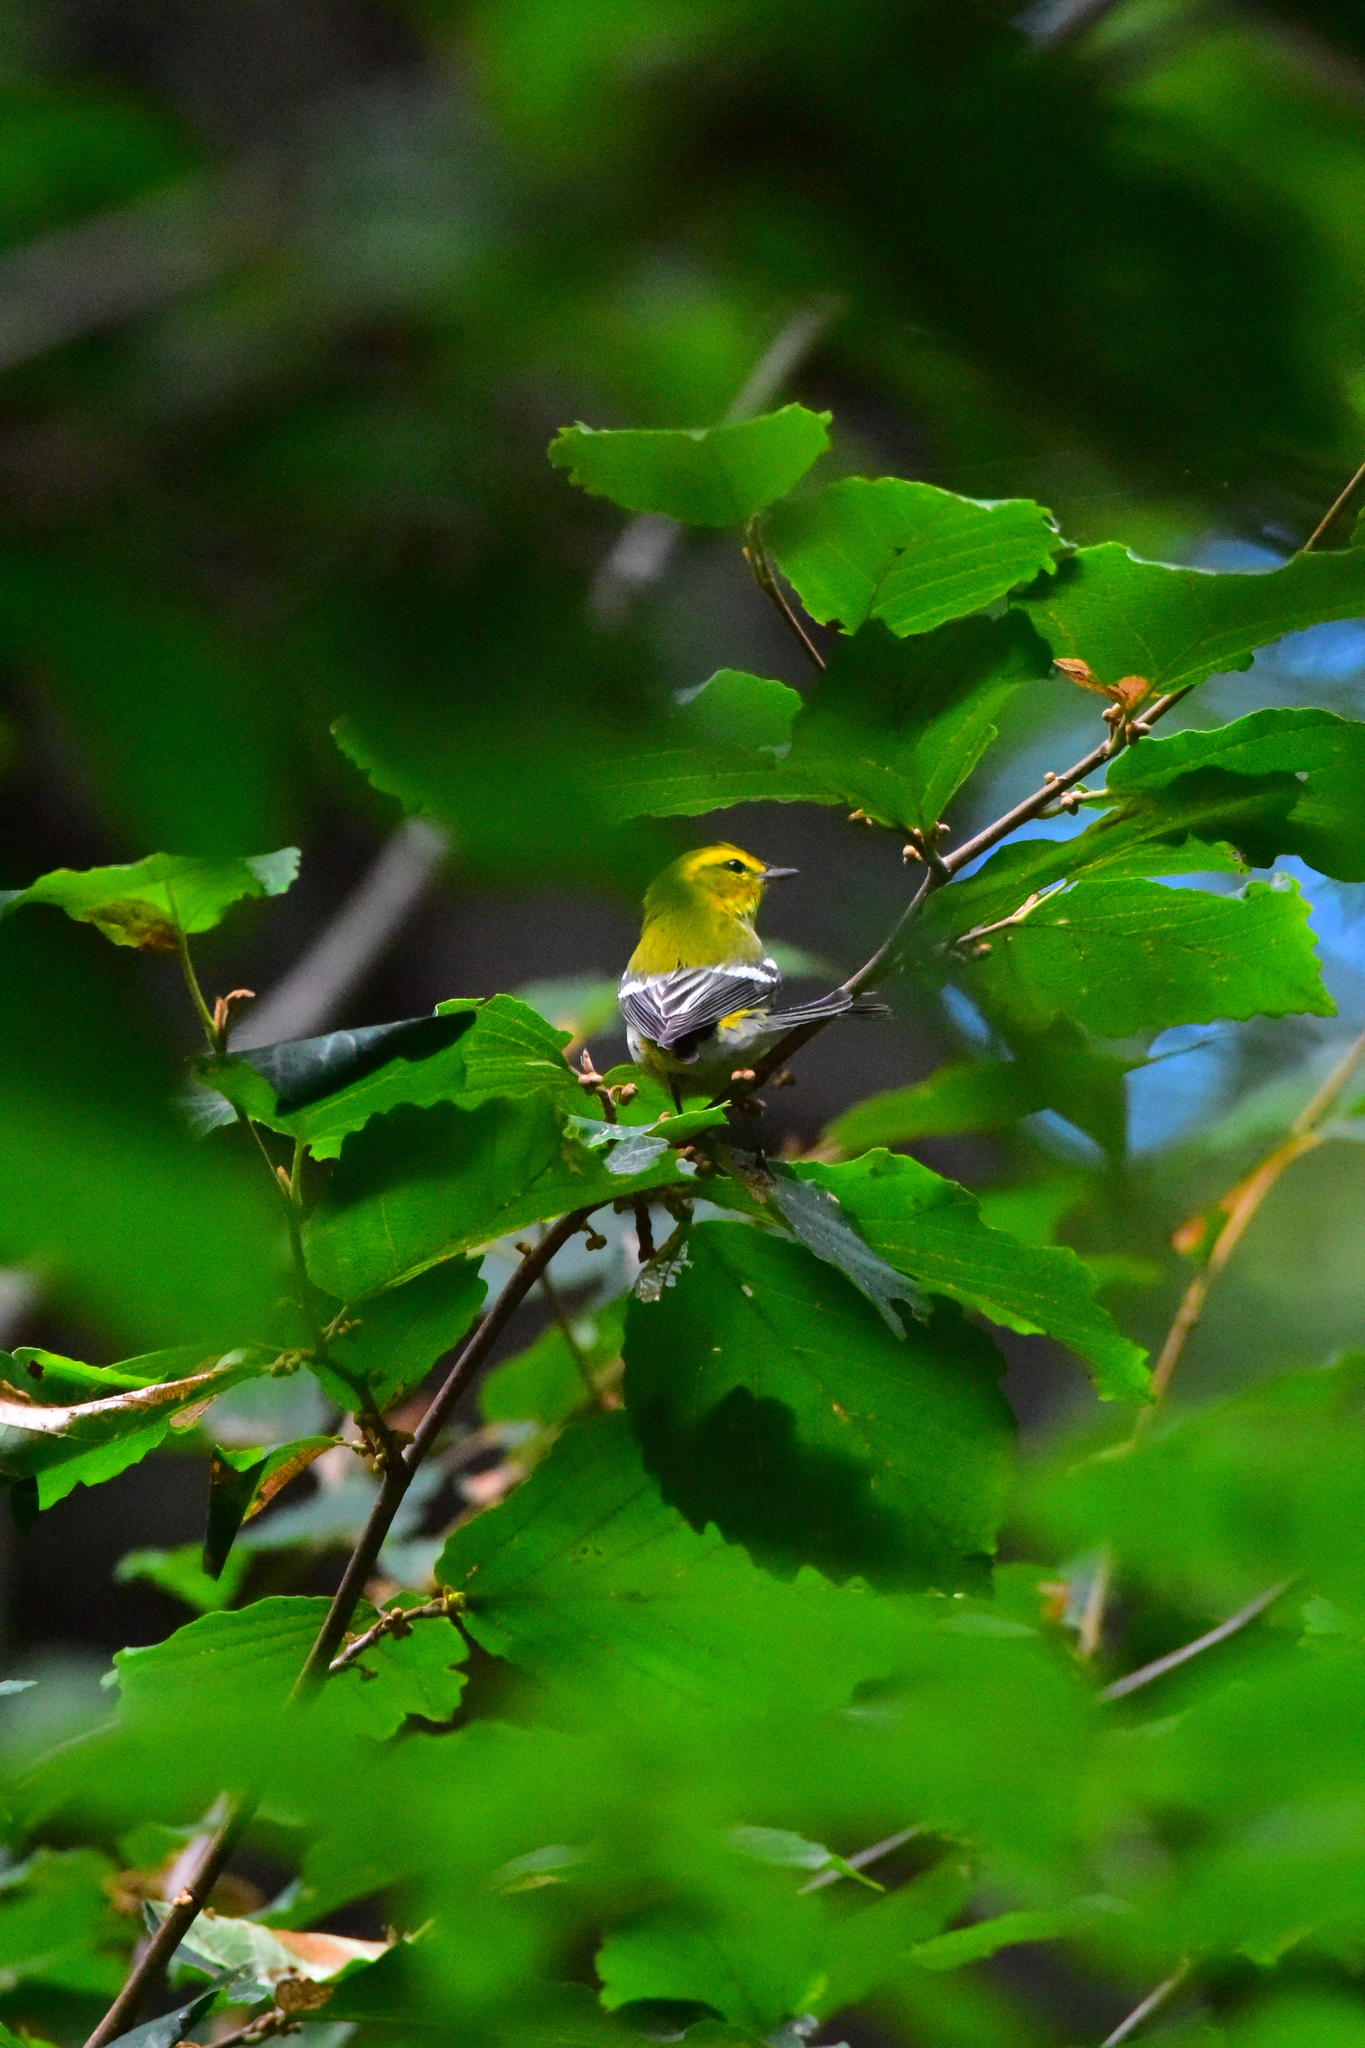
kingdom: Animalia
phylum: Chordata
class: Aves
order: Passeriformes
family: Parulidae
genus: Setophaga
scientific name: Setophaga virens
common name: Black-throated green warbler
